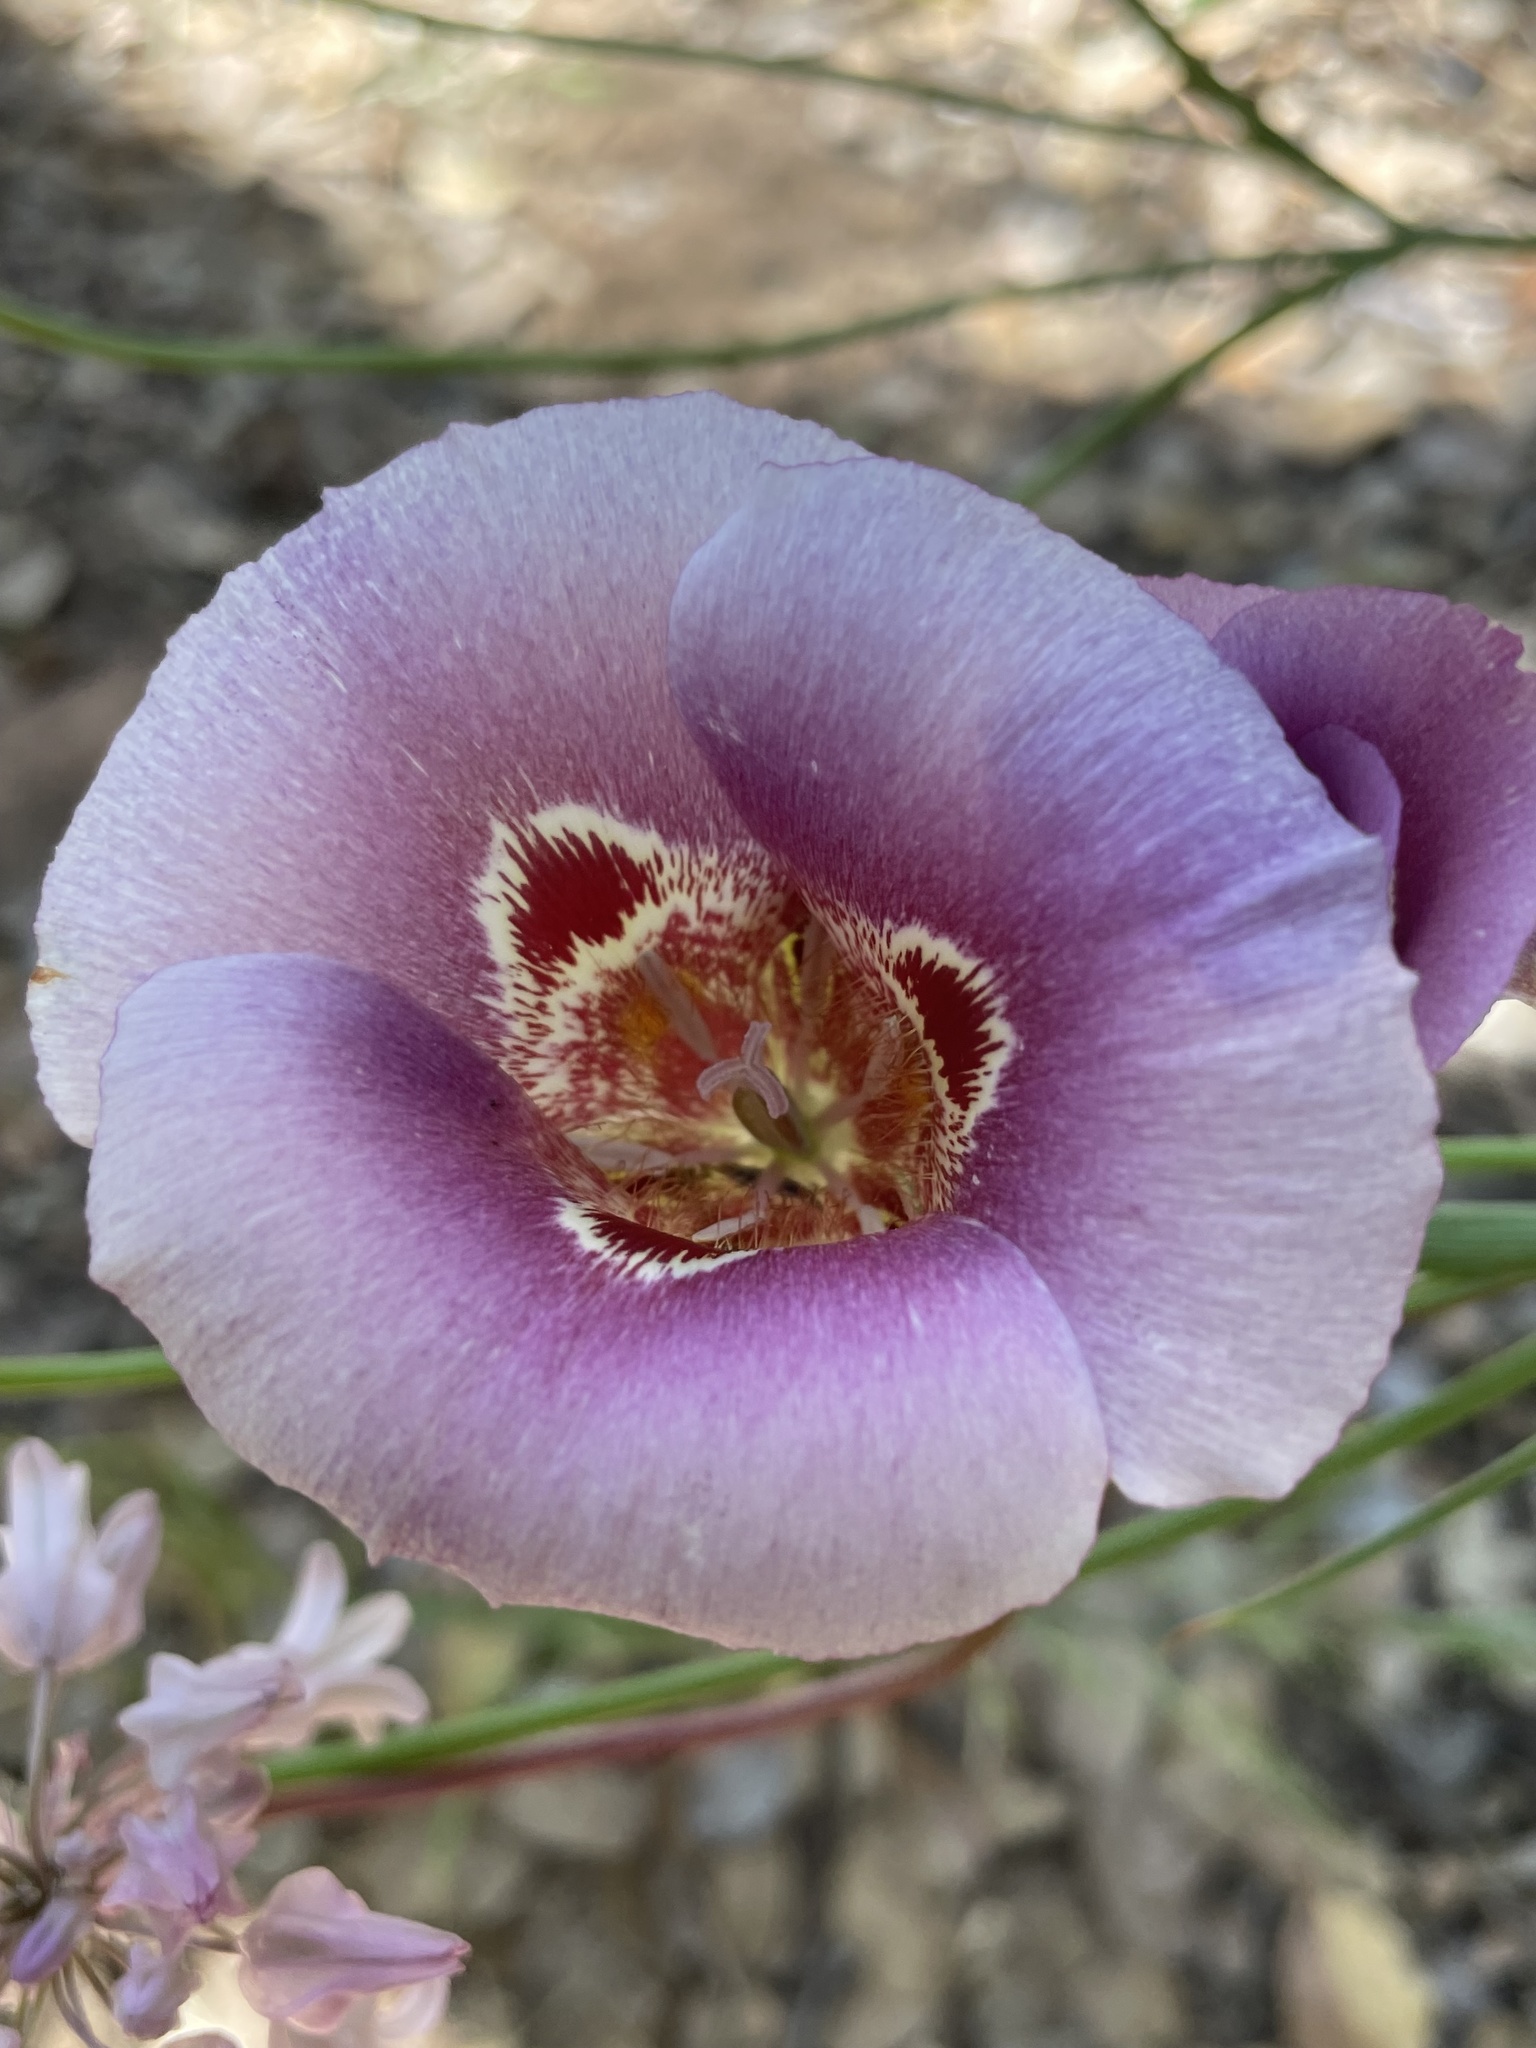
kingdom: Plantae
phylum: Tracheophyta
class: Liliopsida
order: Liliales
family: Liliaceae
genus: Calochortus
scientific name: Calochortus venustus
